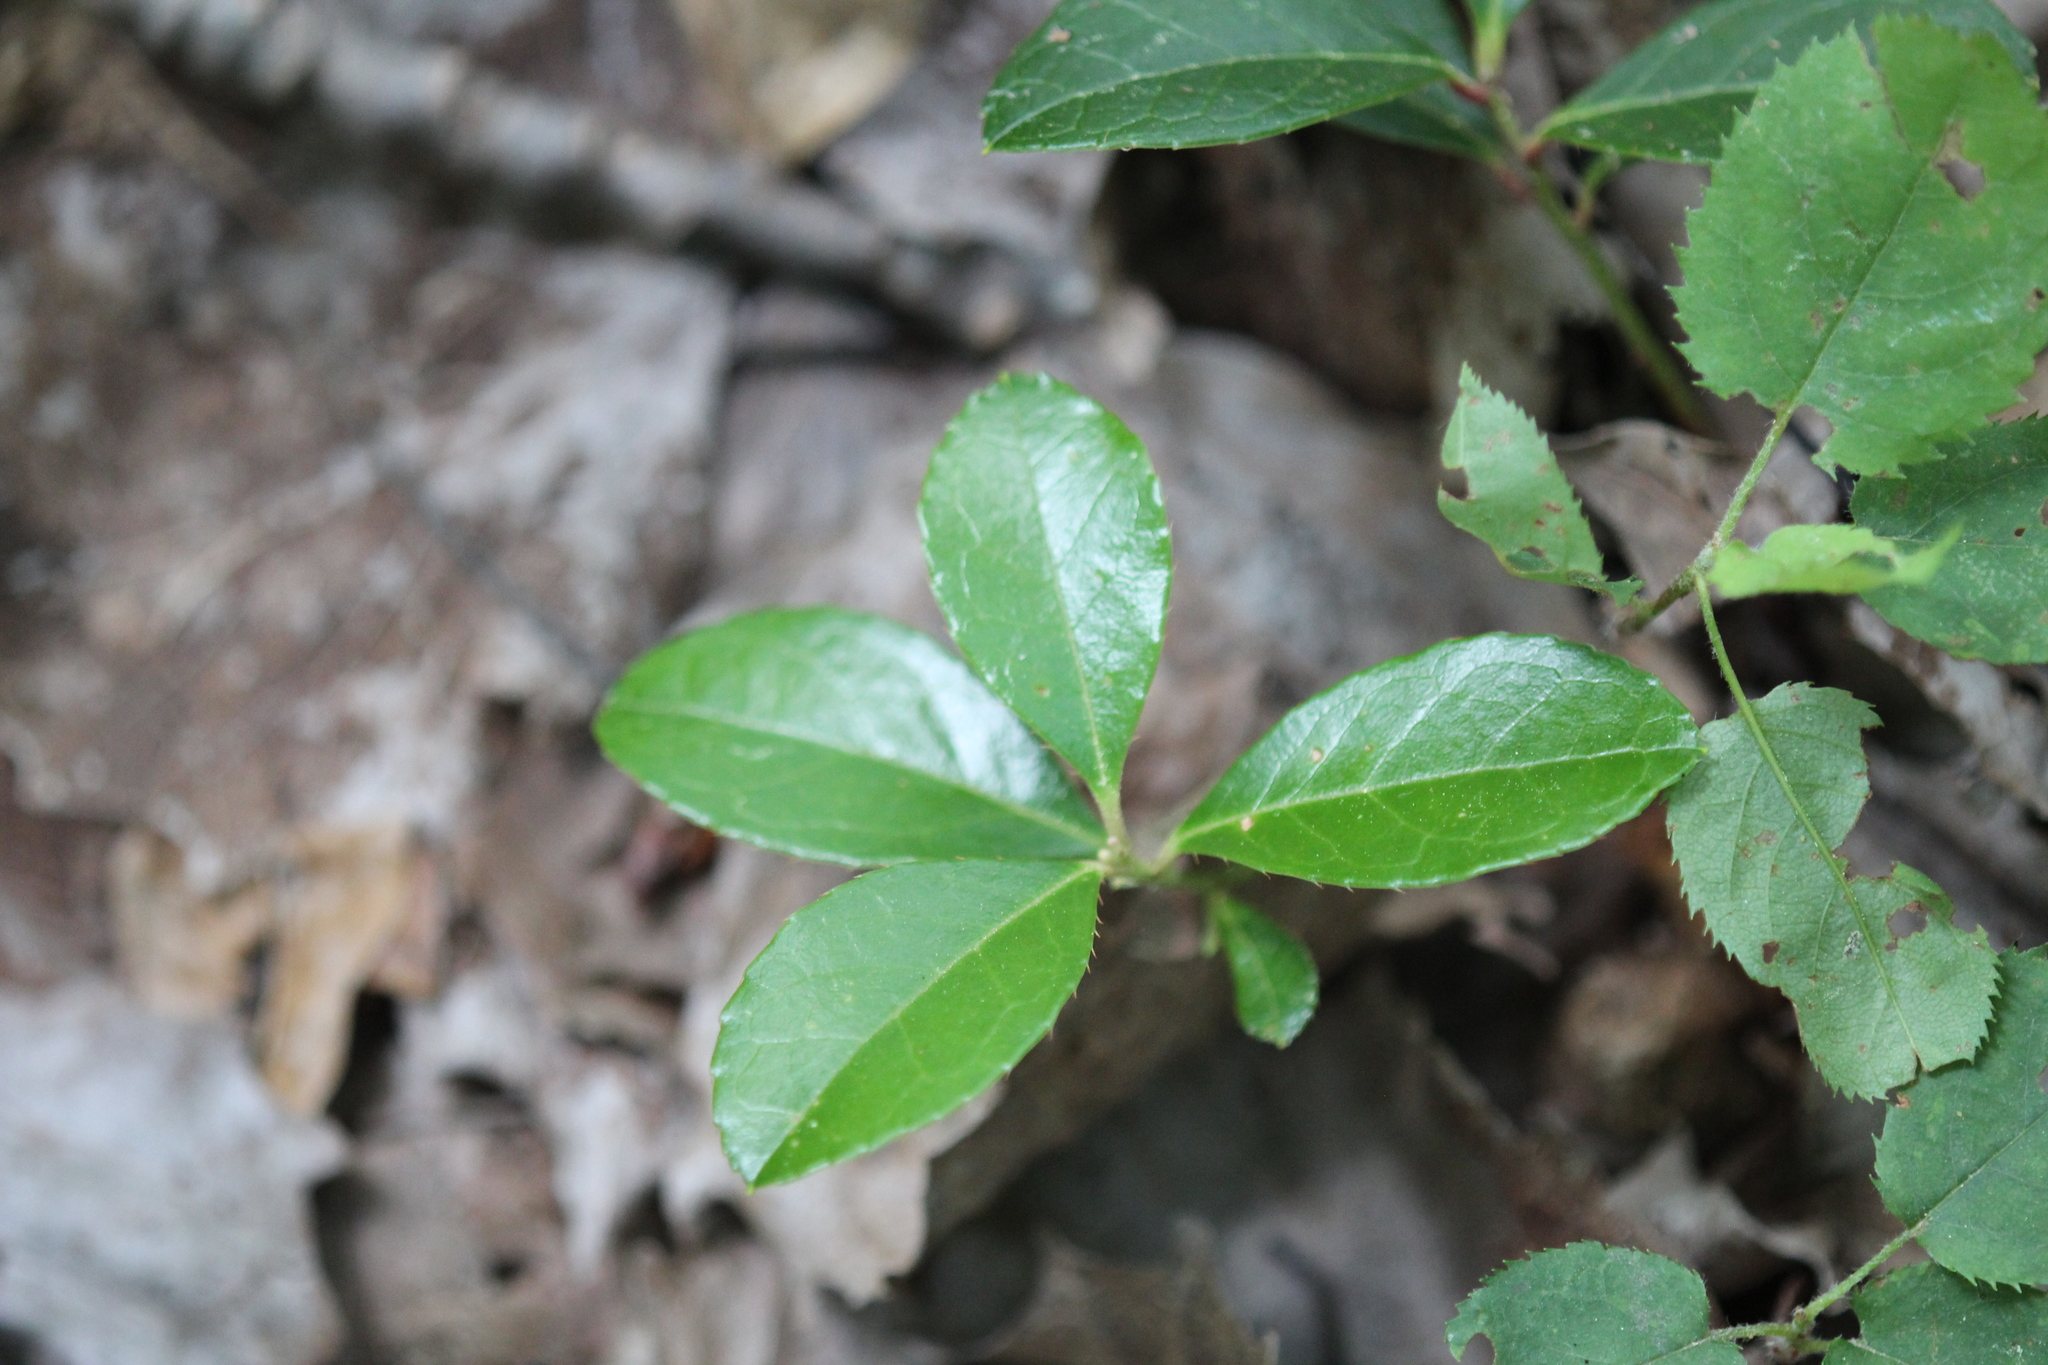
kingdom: Plantae
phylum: Tracheophyta
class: Magnoliopsida
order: Ericales
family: Ericaceae
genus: Gaultheria
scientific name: Gaultheria procumbens
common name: Checkerberry
